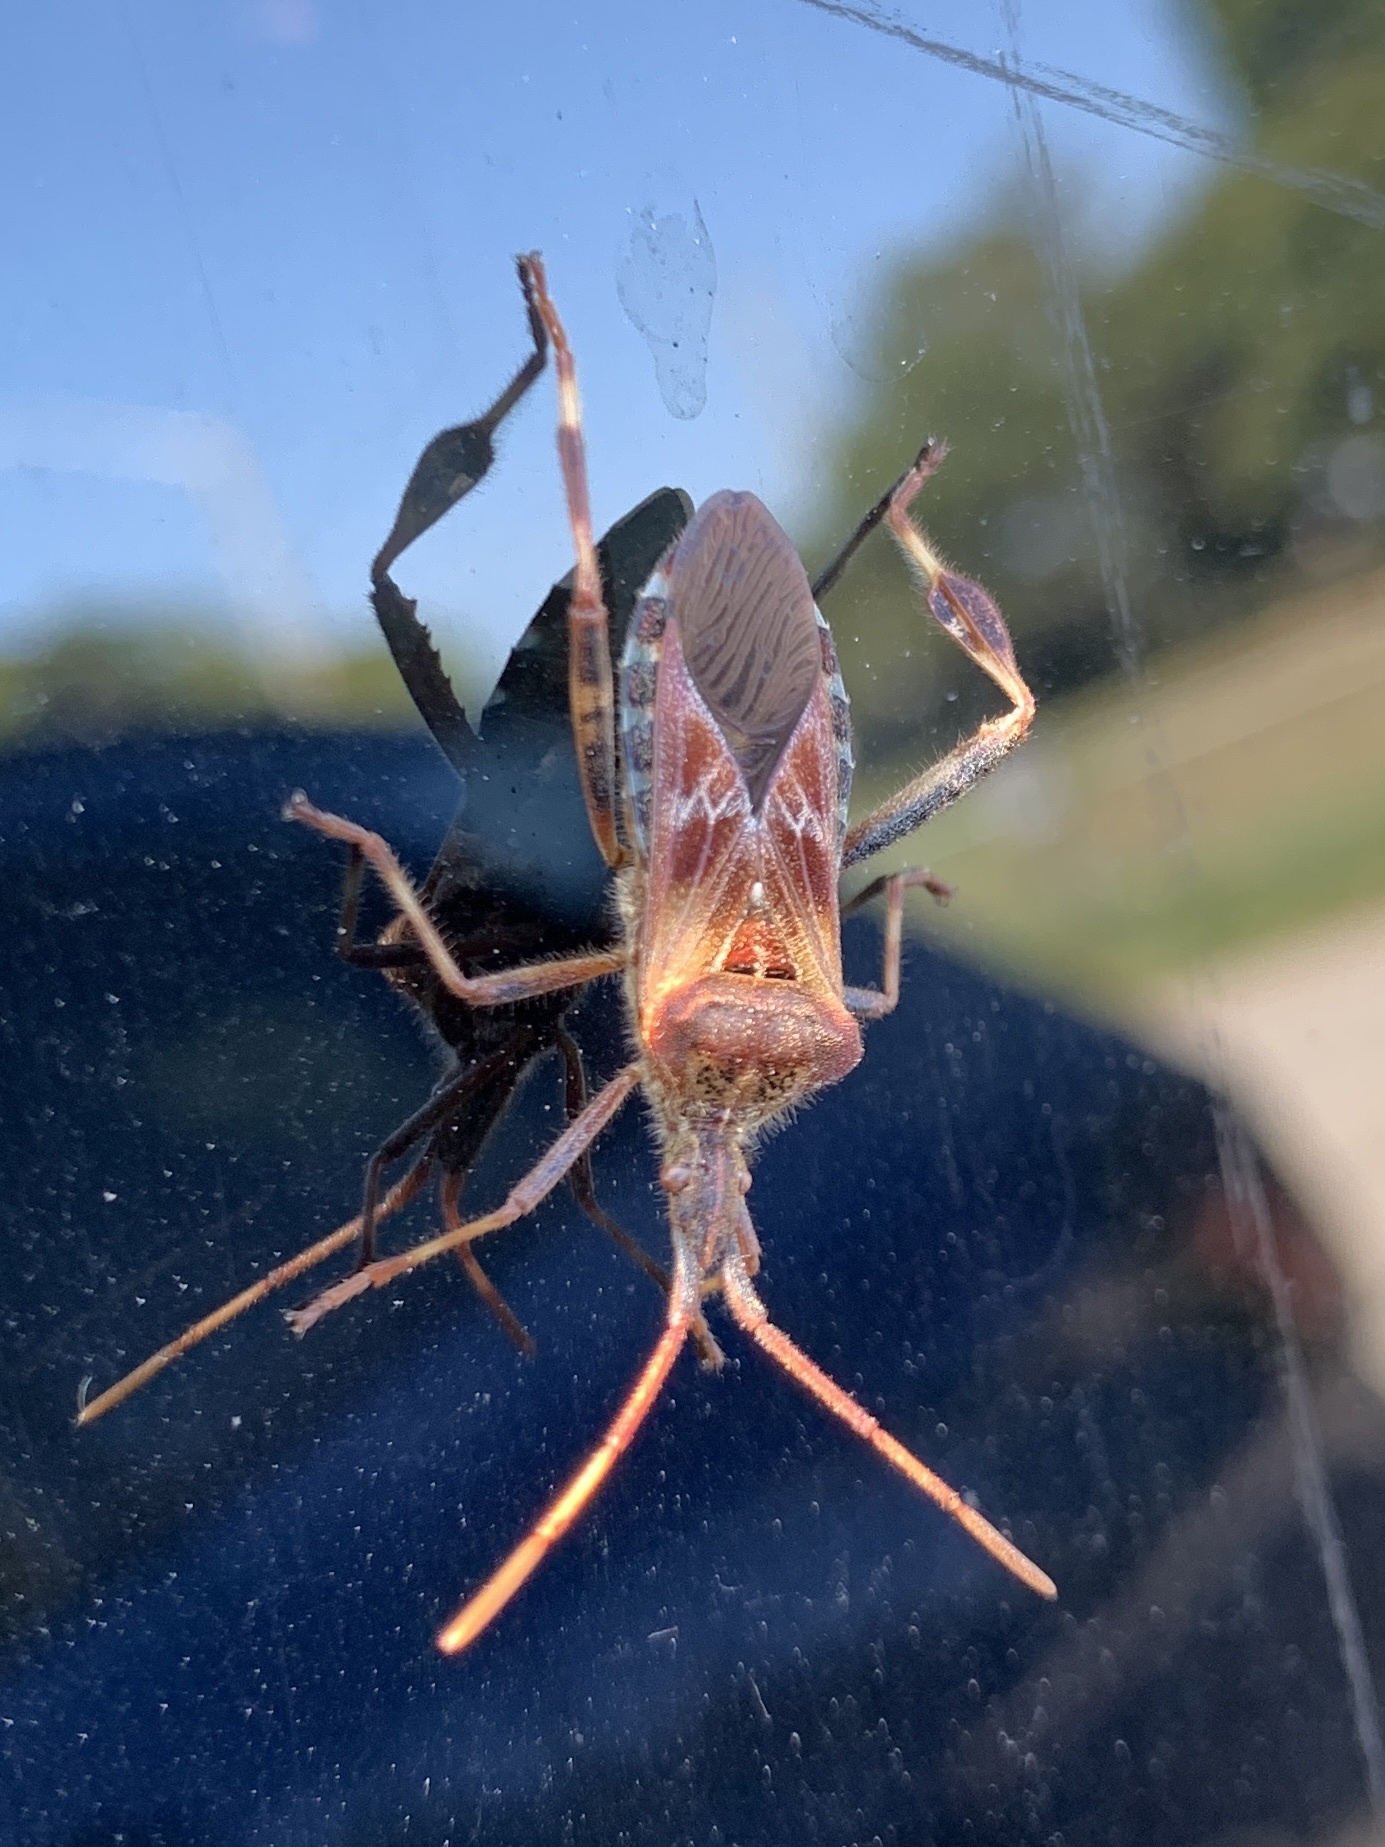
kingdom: Animalia
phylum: Arthropoda
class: Insecta
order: Hemiptera
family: Coreidae
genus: Leptoglossus
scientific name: Leptoglossus occidentalis
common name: Western conifer-seed bug
